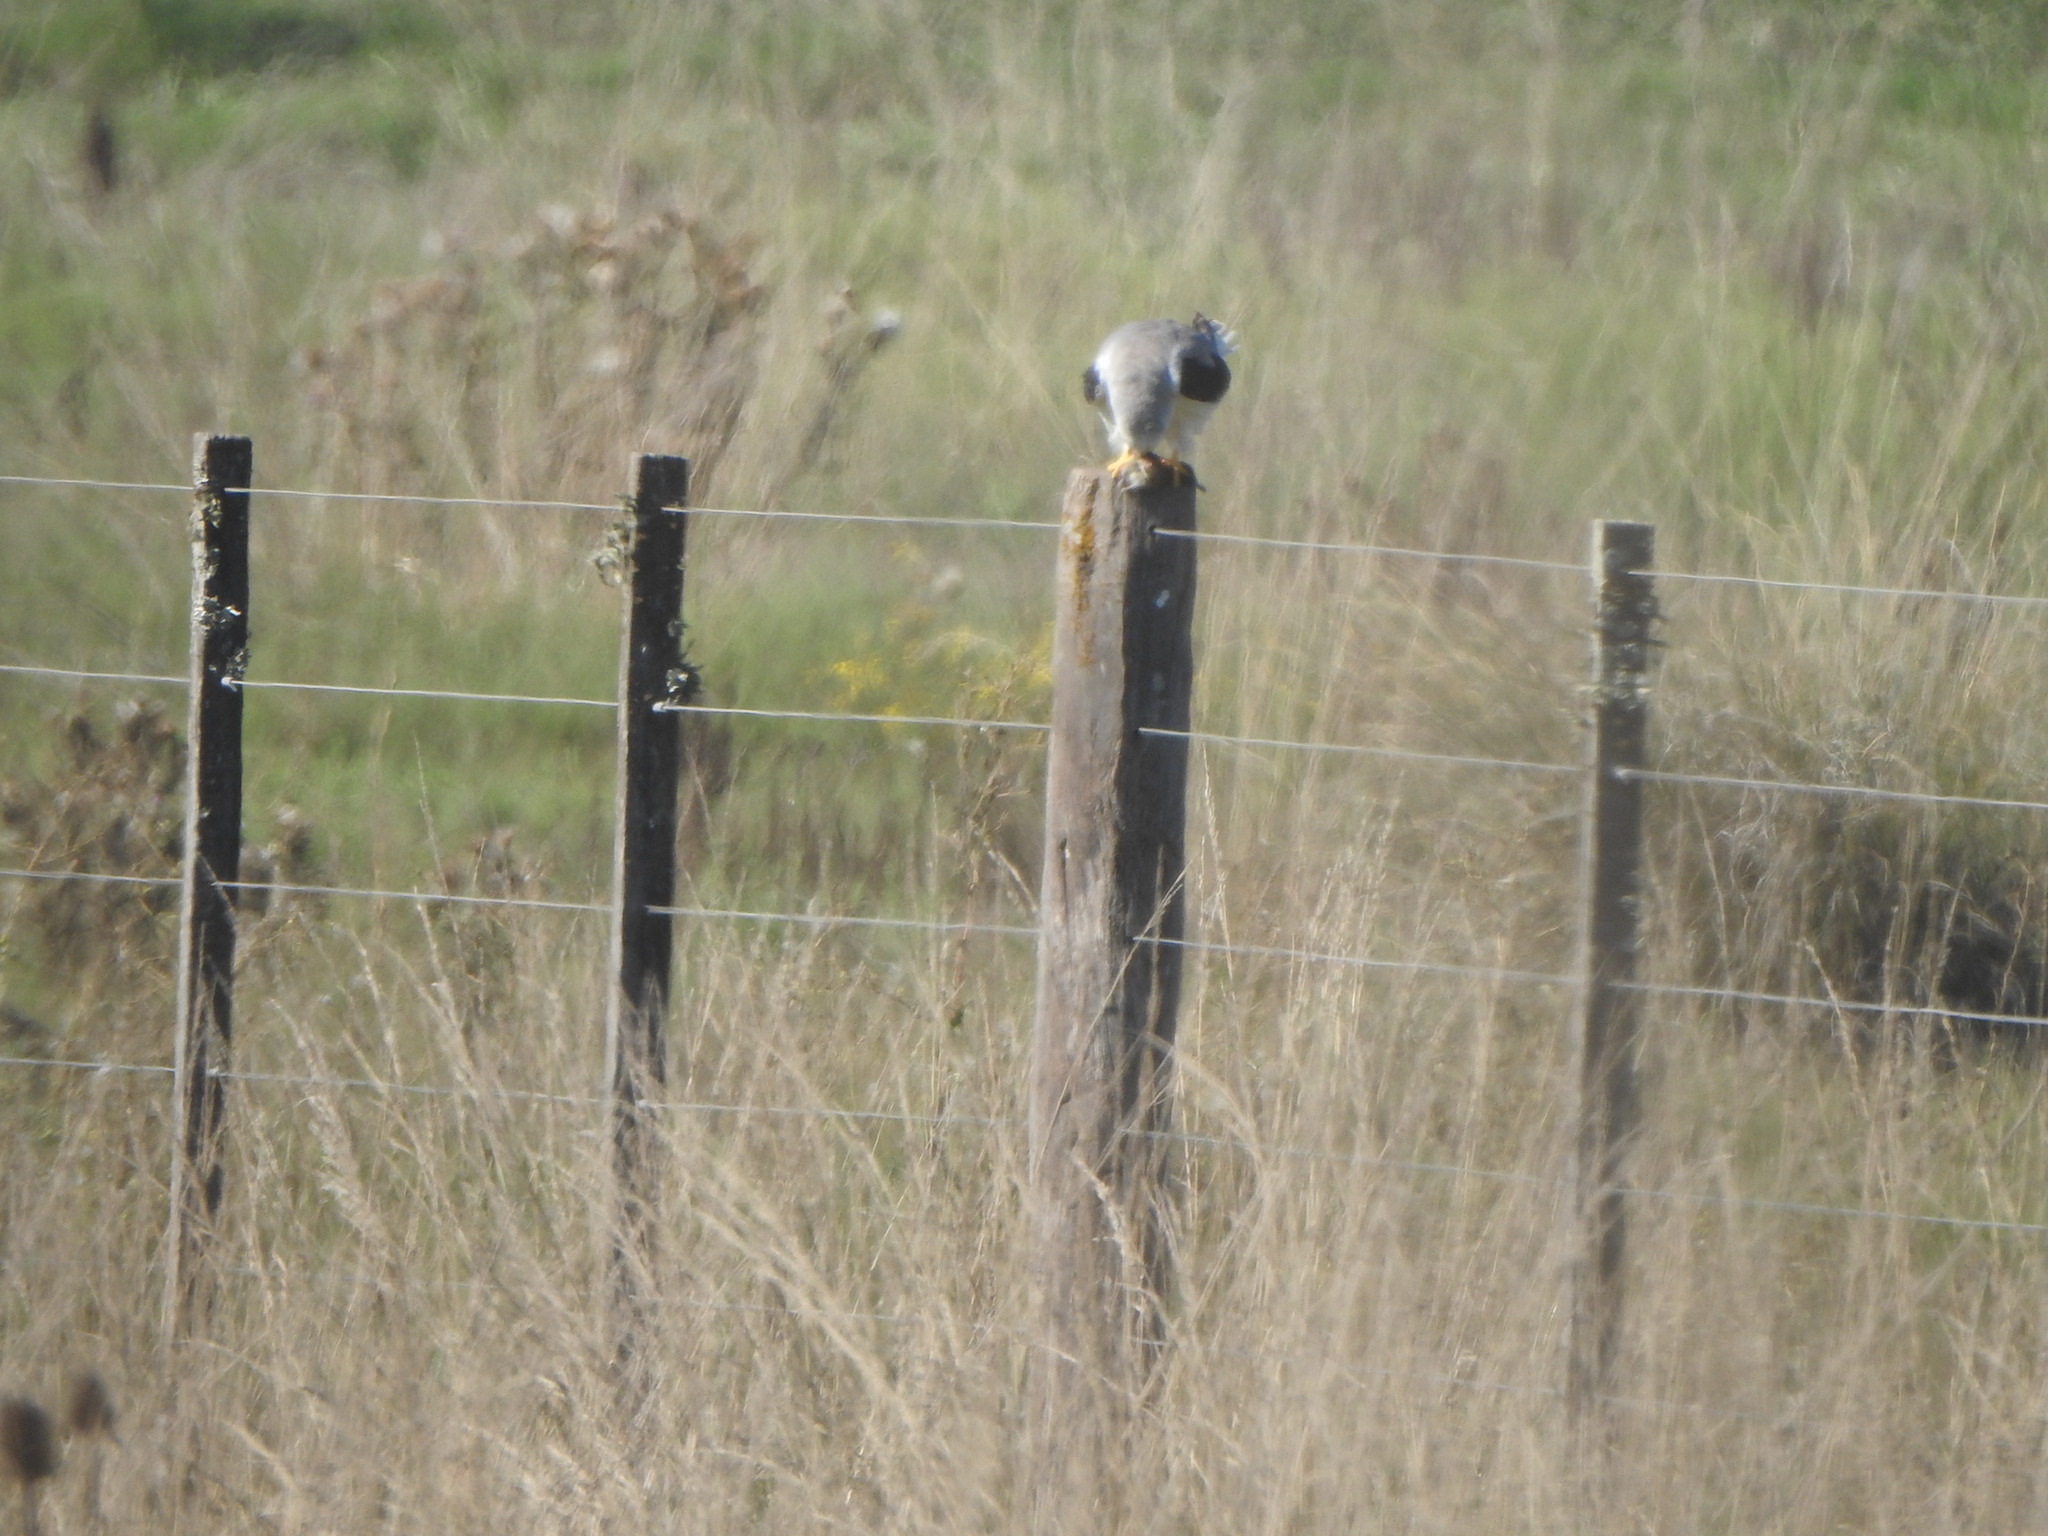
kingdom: Animalia
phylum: Chordata
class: Aves
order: Accipitriformes
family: Accipitridae
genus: Elanus
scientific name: Elanus leucurus
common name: White-tailed kite
